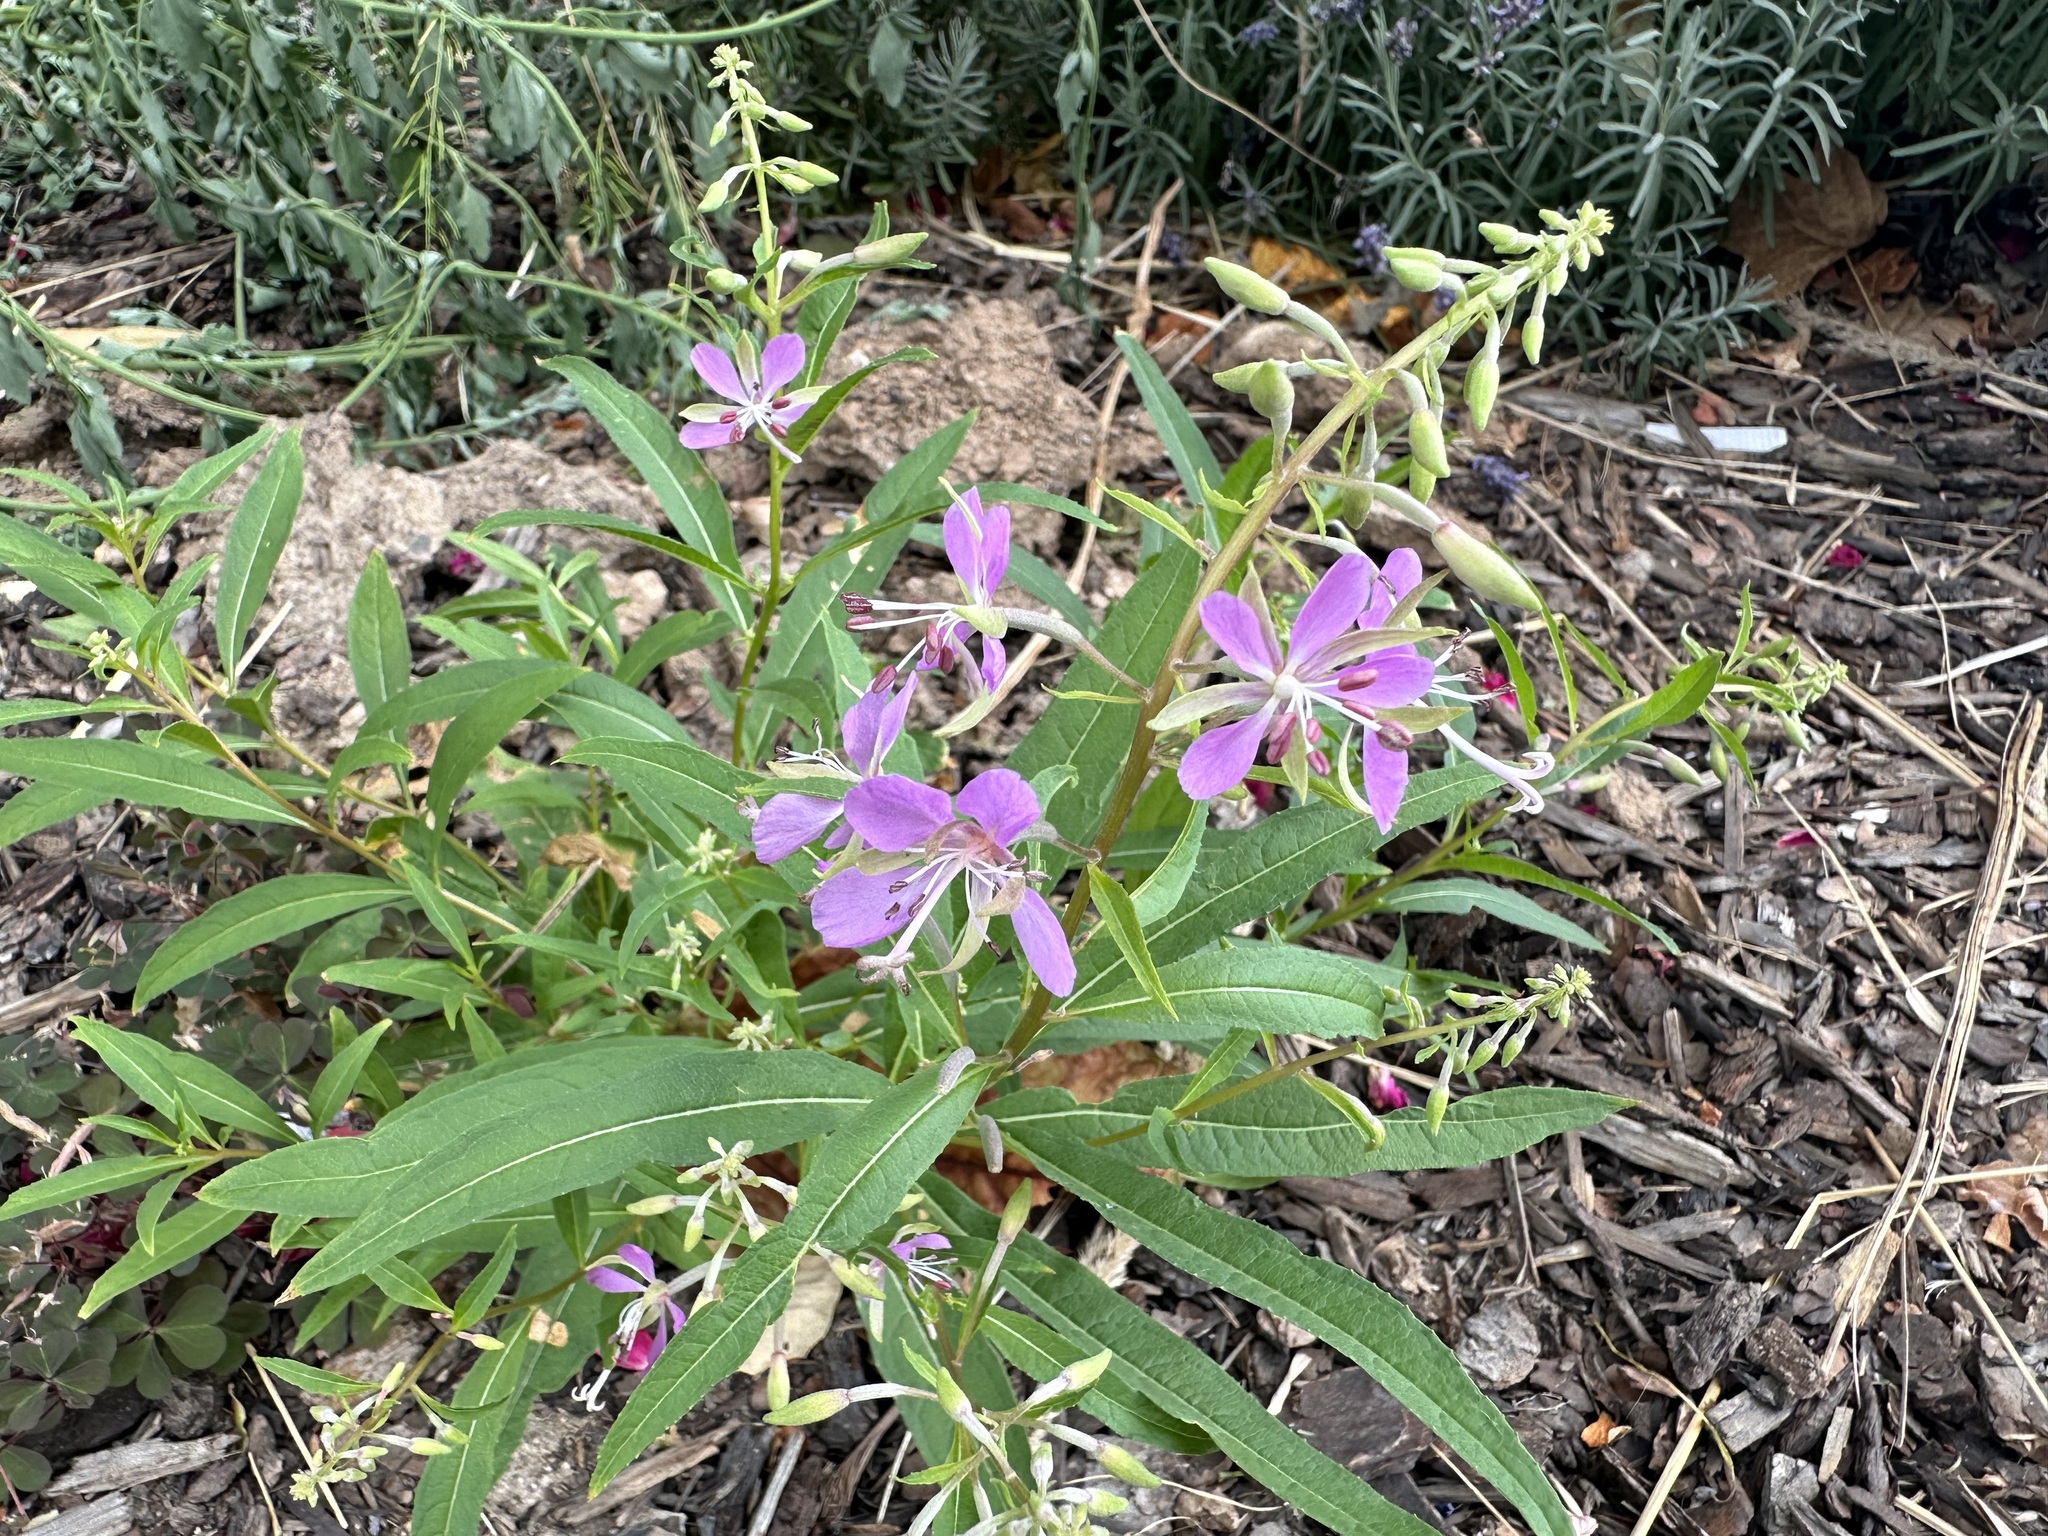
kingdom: Plantae
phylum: Tracheophyta
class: Magnoliopsida
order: Myrtales
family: Onagraceae
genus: Chamaenerion
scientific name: Chamaenerion angustifolium
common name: Fireweed
